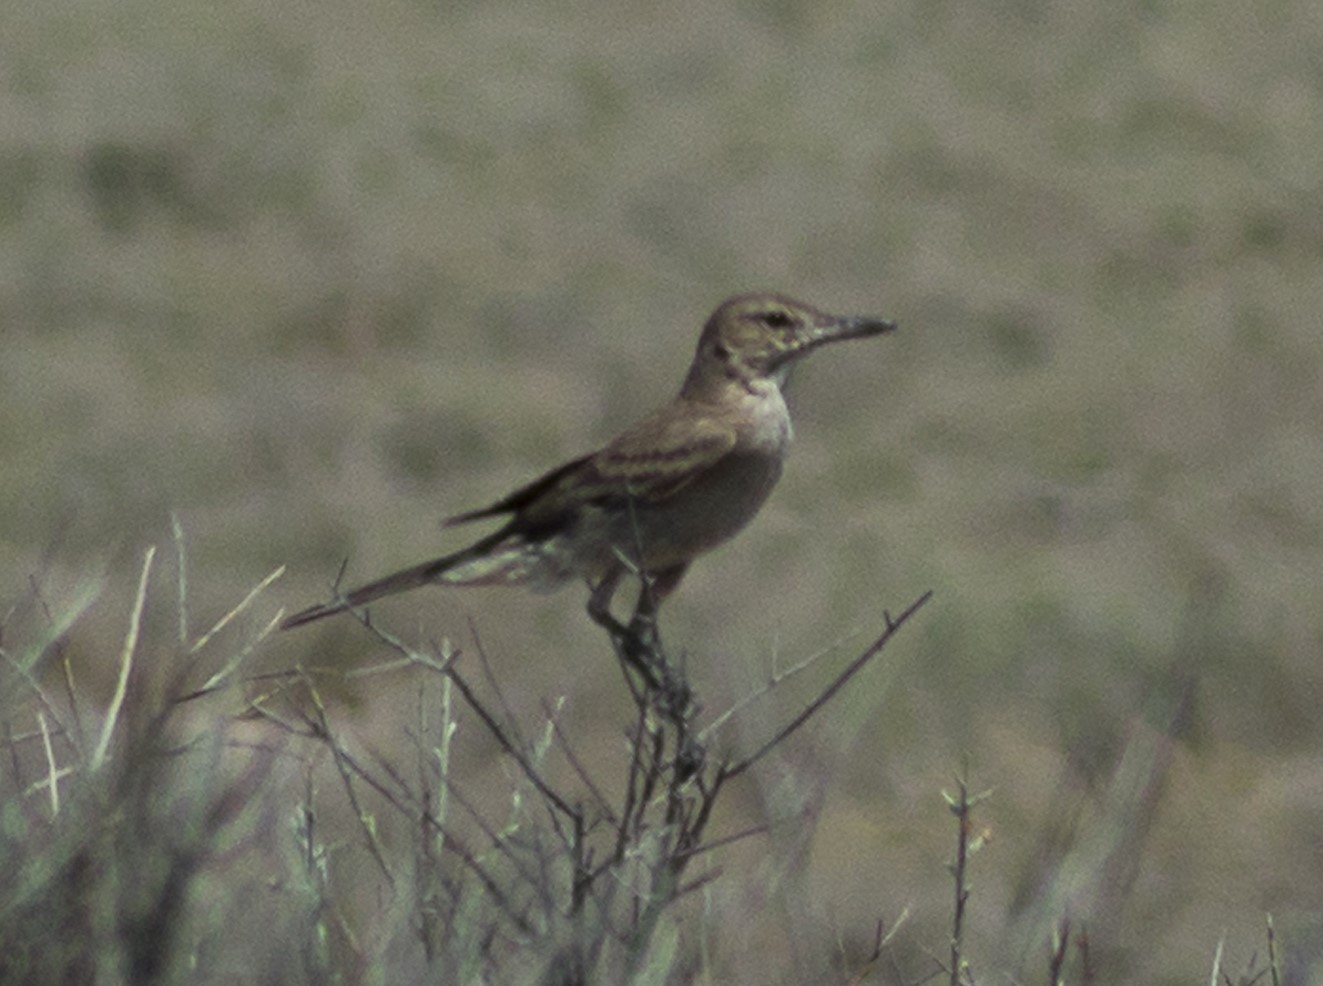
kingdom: Animalia
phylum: Chordata
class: Aves
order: Passeriformes
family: Tyrannidae
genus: Agriornis
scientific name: Agriornis micropterus
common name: Grey-bellied shrike-tyrant
